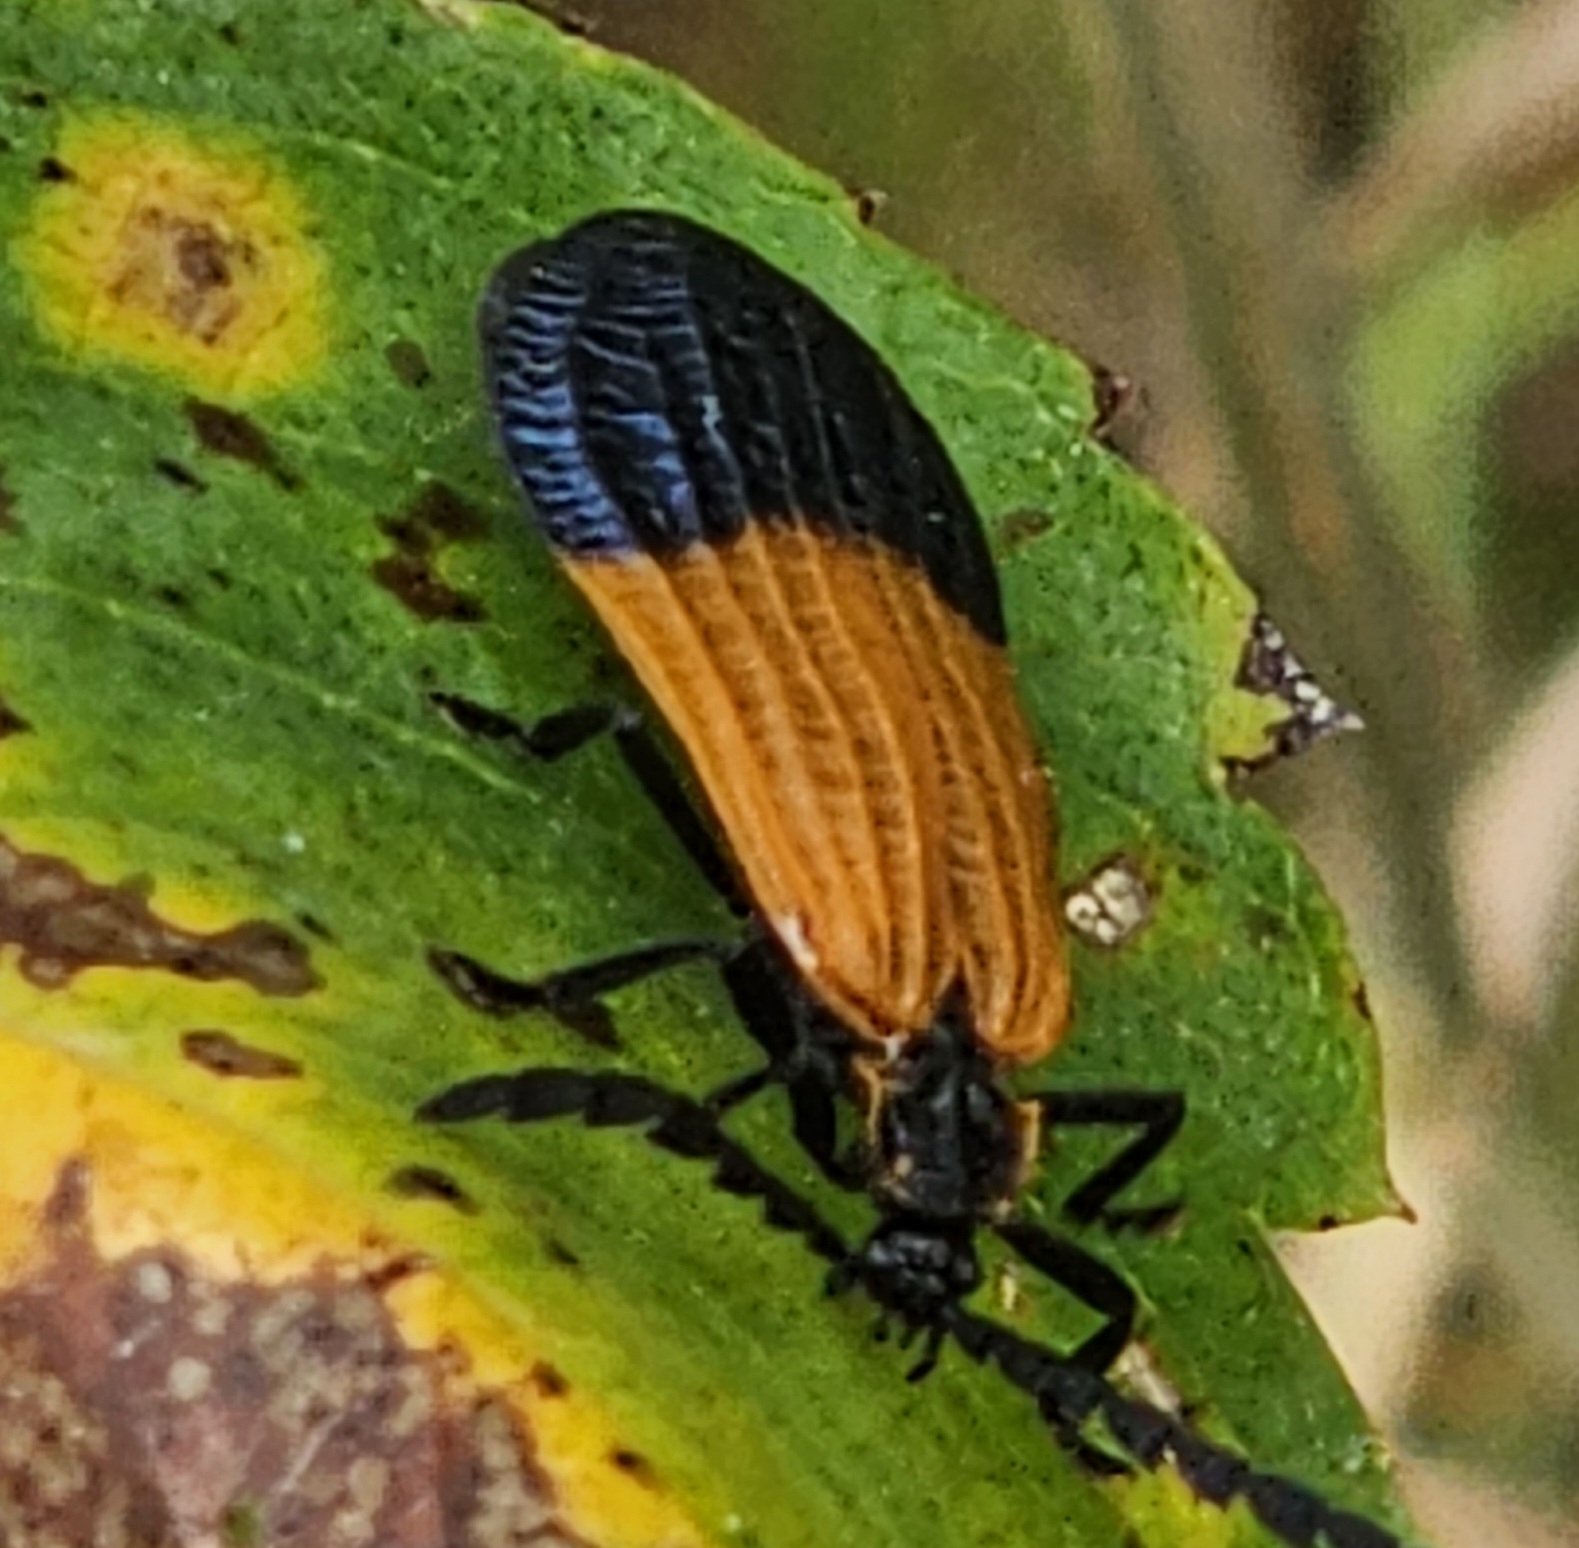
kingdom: Animalia
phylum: Arthropoda
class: Insecta
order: Coleoptera
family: Lycidae
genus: Calopteron
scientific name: Calopteron terminale
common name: End band net-winged beetle
